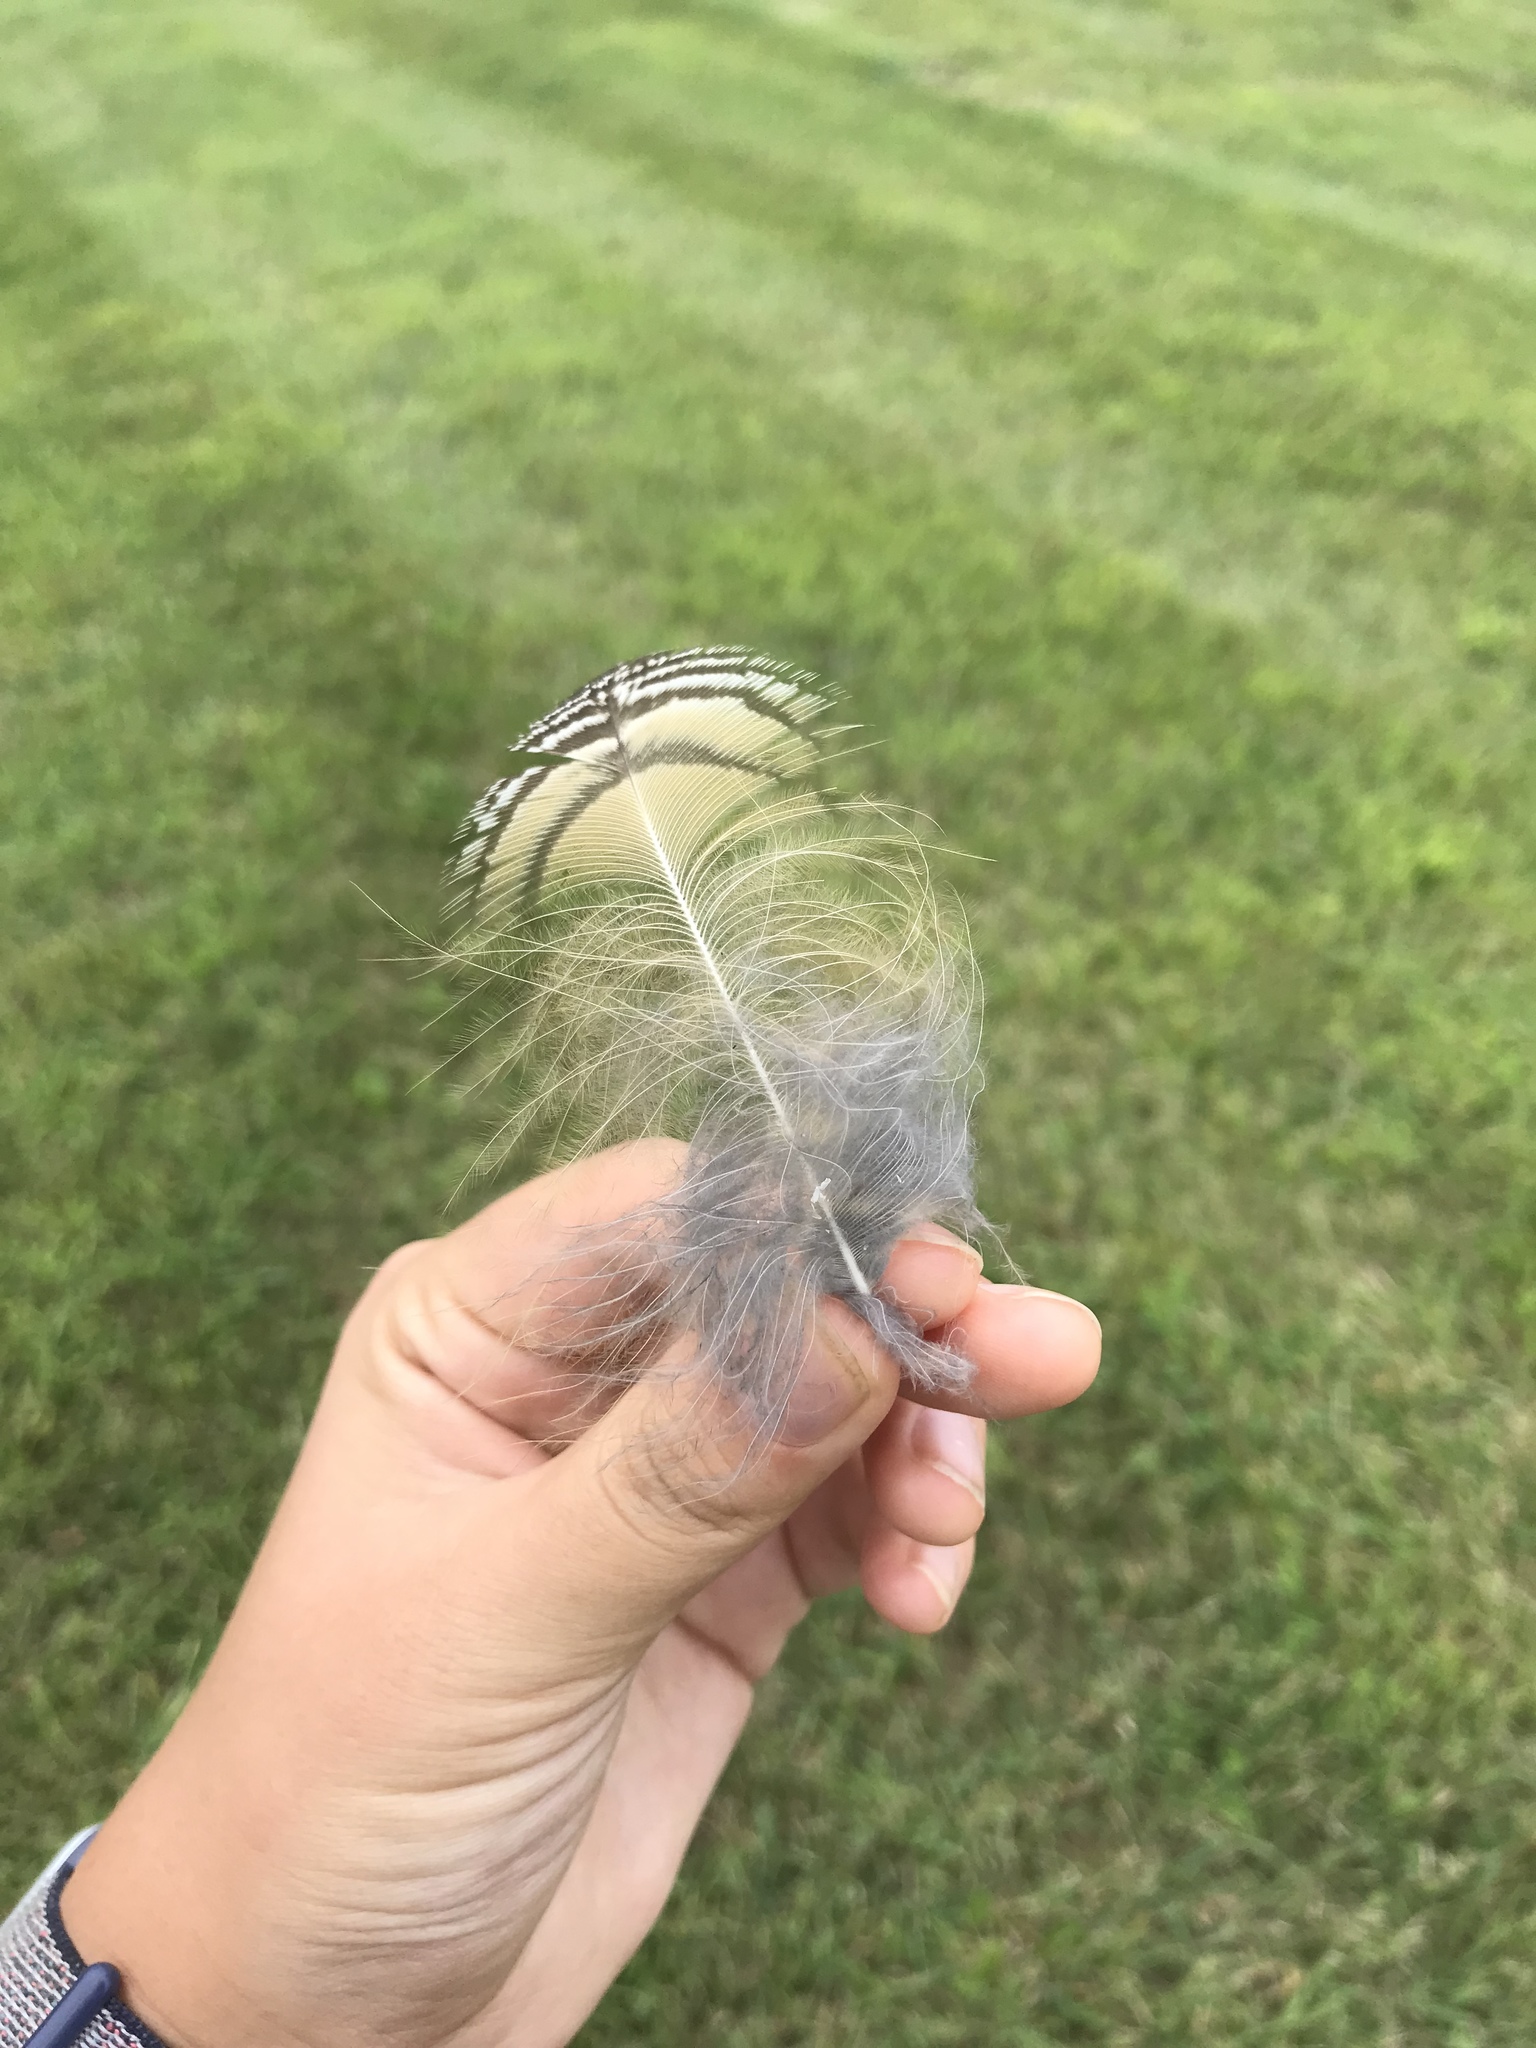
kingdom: Animalia
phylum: Chordata
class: Aves
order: Strigiformes
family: Strigidae
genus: Bubo
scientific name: Bubo virginianus
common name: Great horned owl
